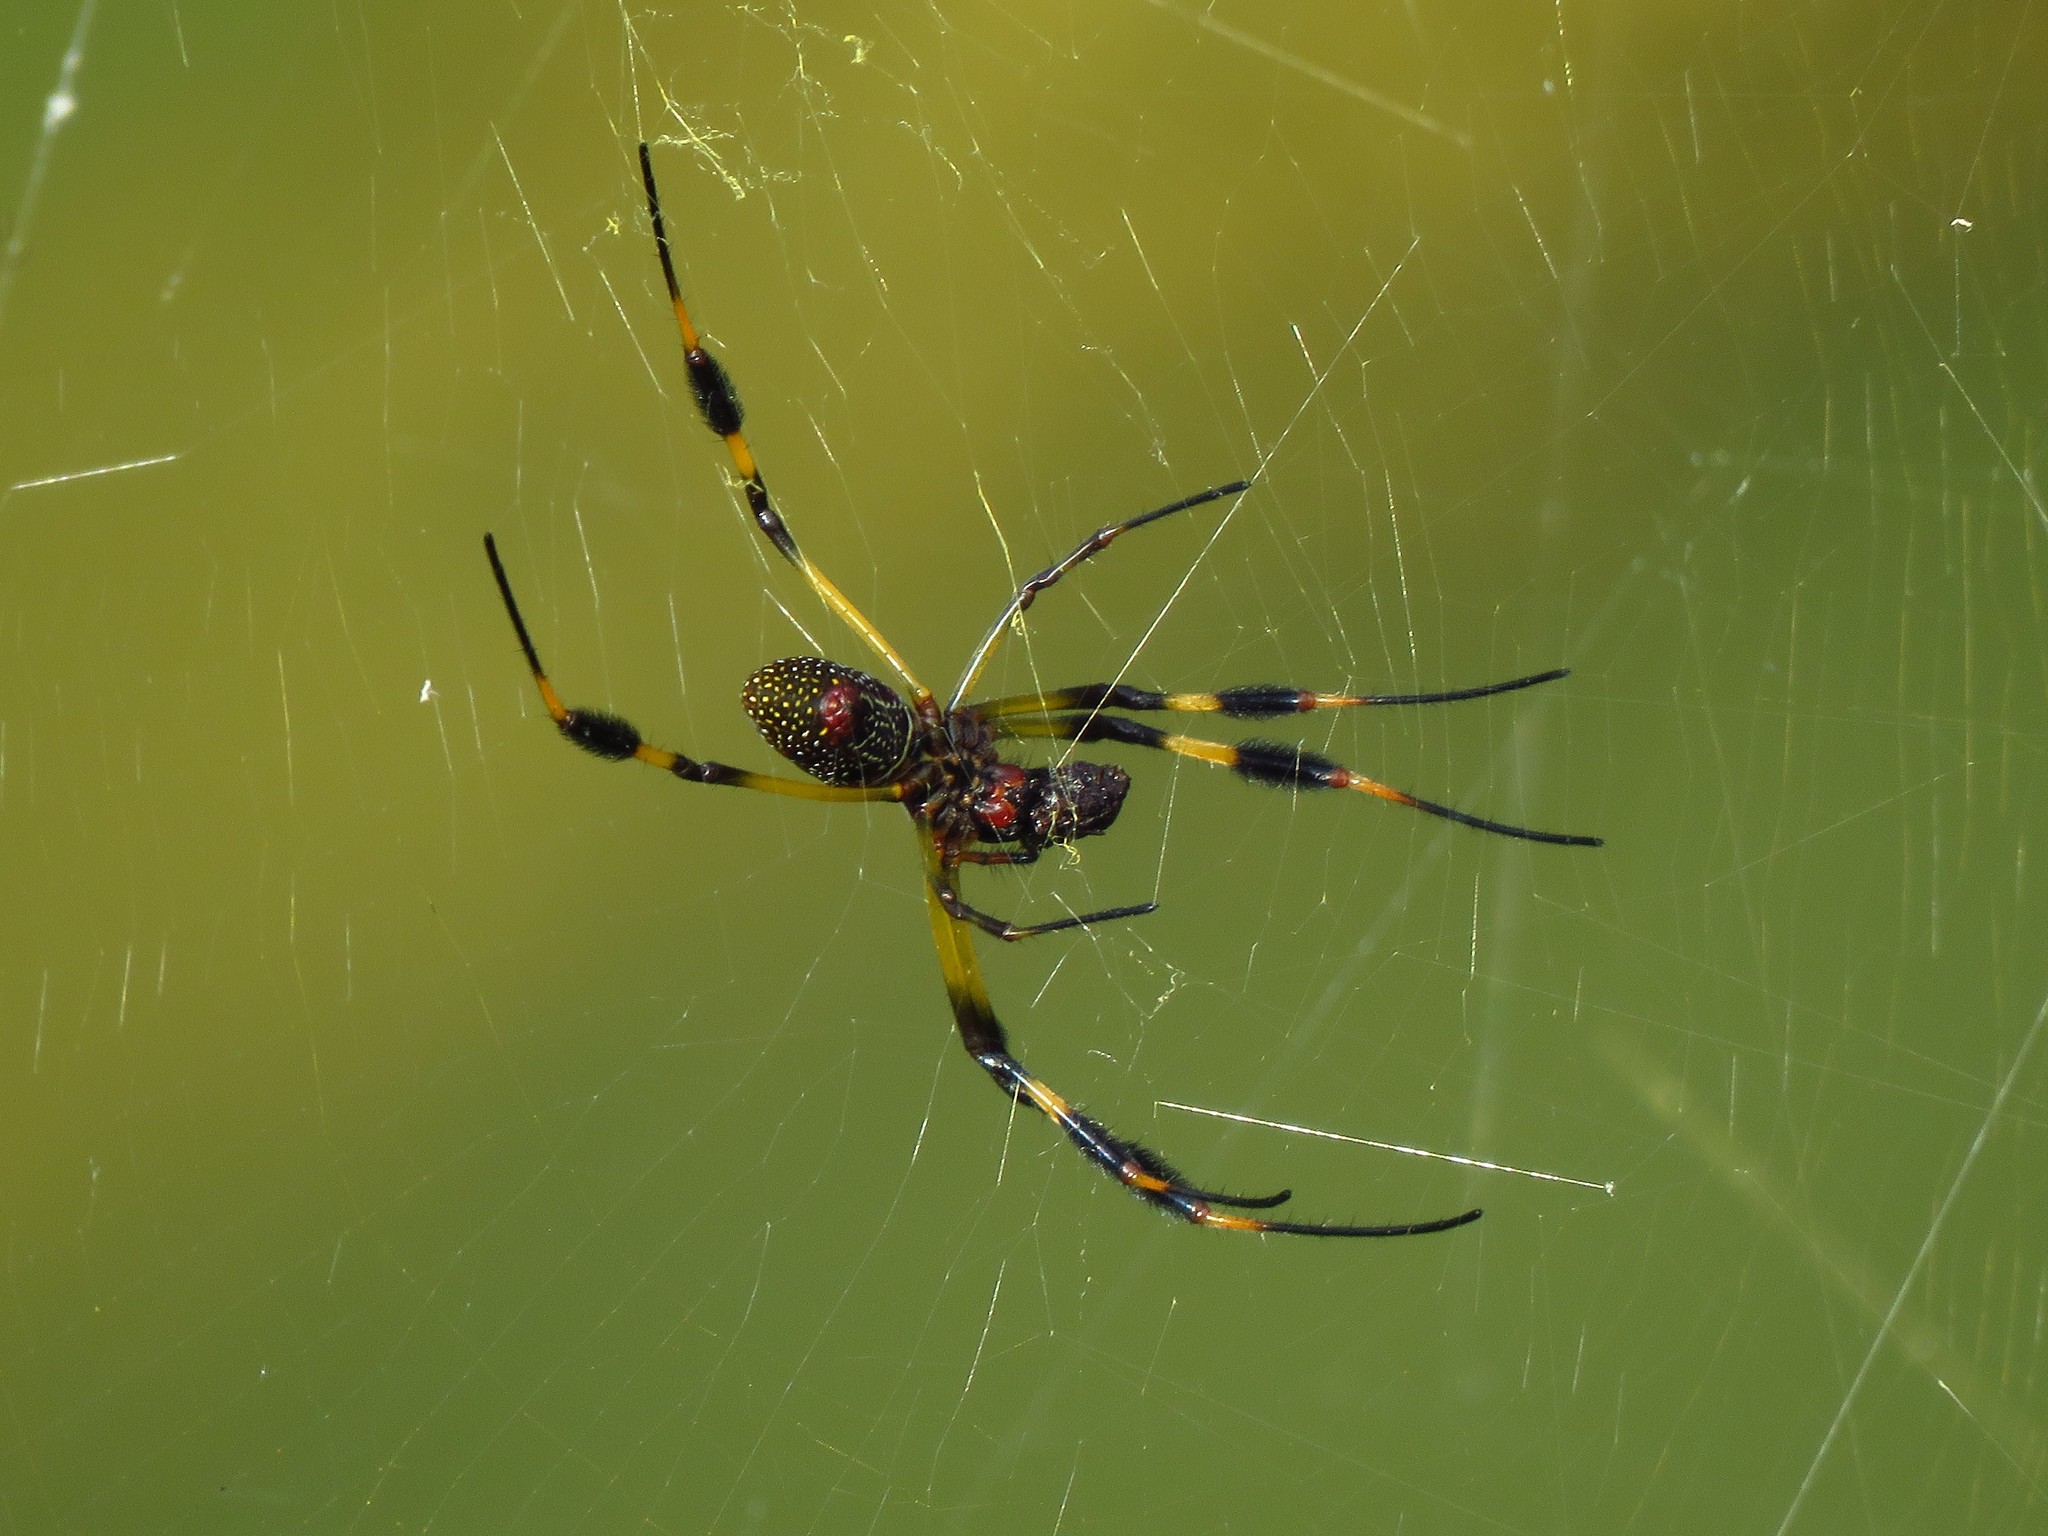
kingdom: Animalia
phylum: Arthropoda
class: Arachnida
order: Araneae
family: Araneidae
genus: Trichonephila
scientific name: Trichonephila clavipes
